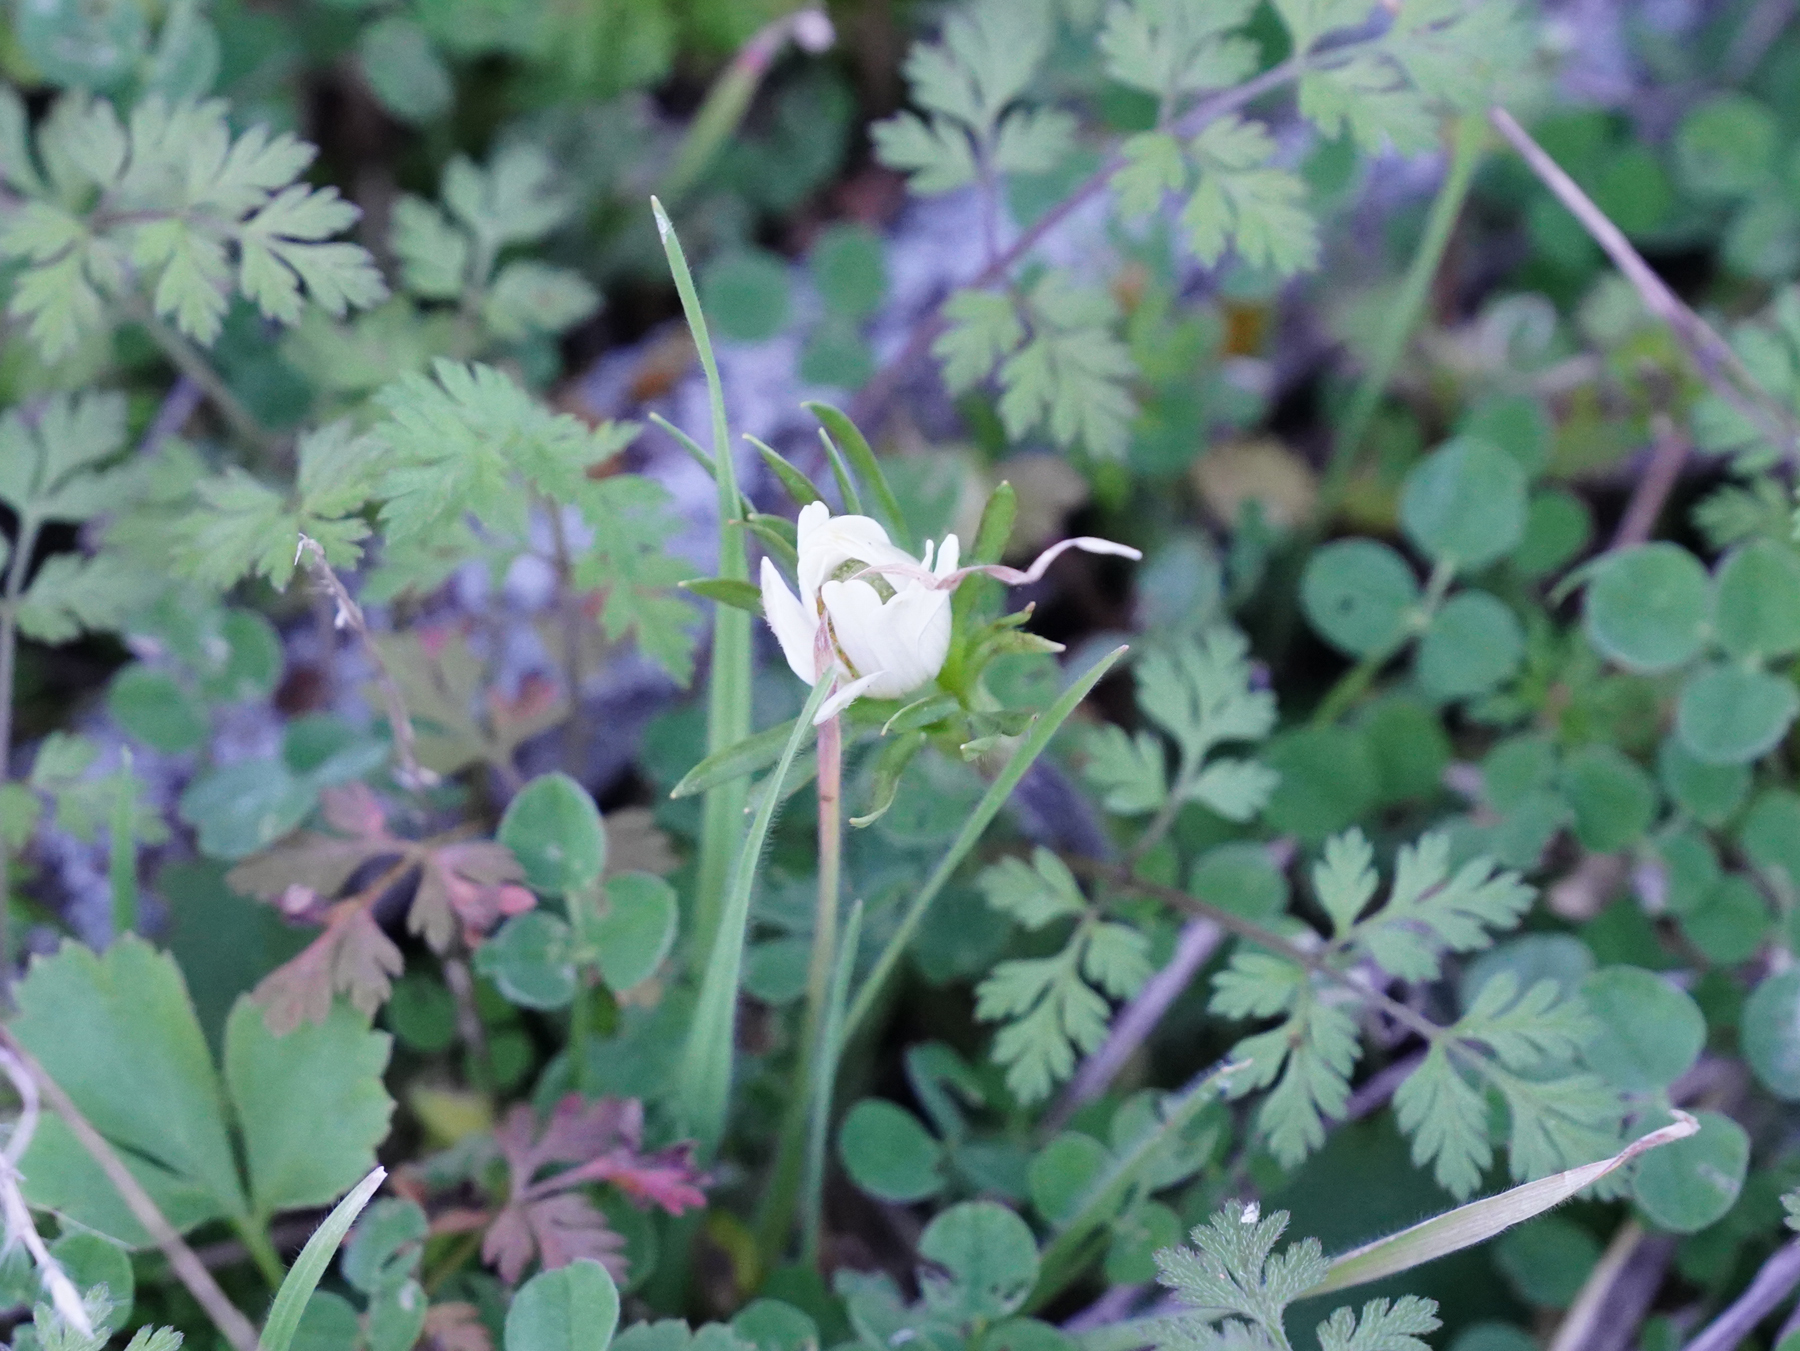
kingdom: Plantae
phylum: Tracheophyta
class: Magnoliopsida
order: Ranunculales
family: Ranunculaceae
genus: Anemone
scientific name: Anemone berlandieri
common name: Ten-petal anemone
